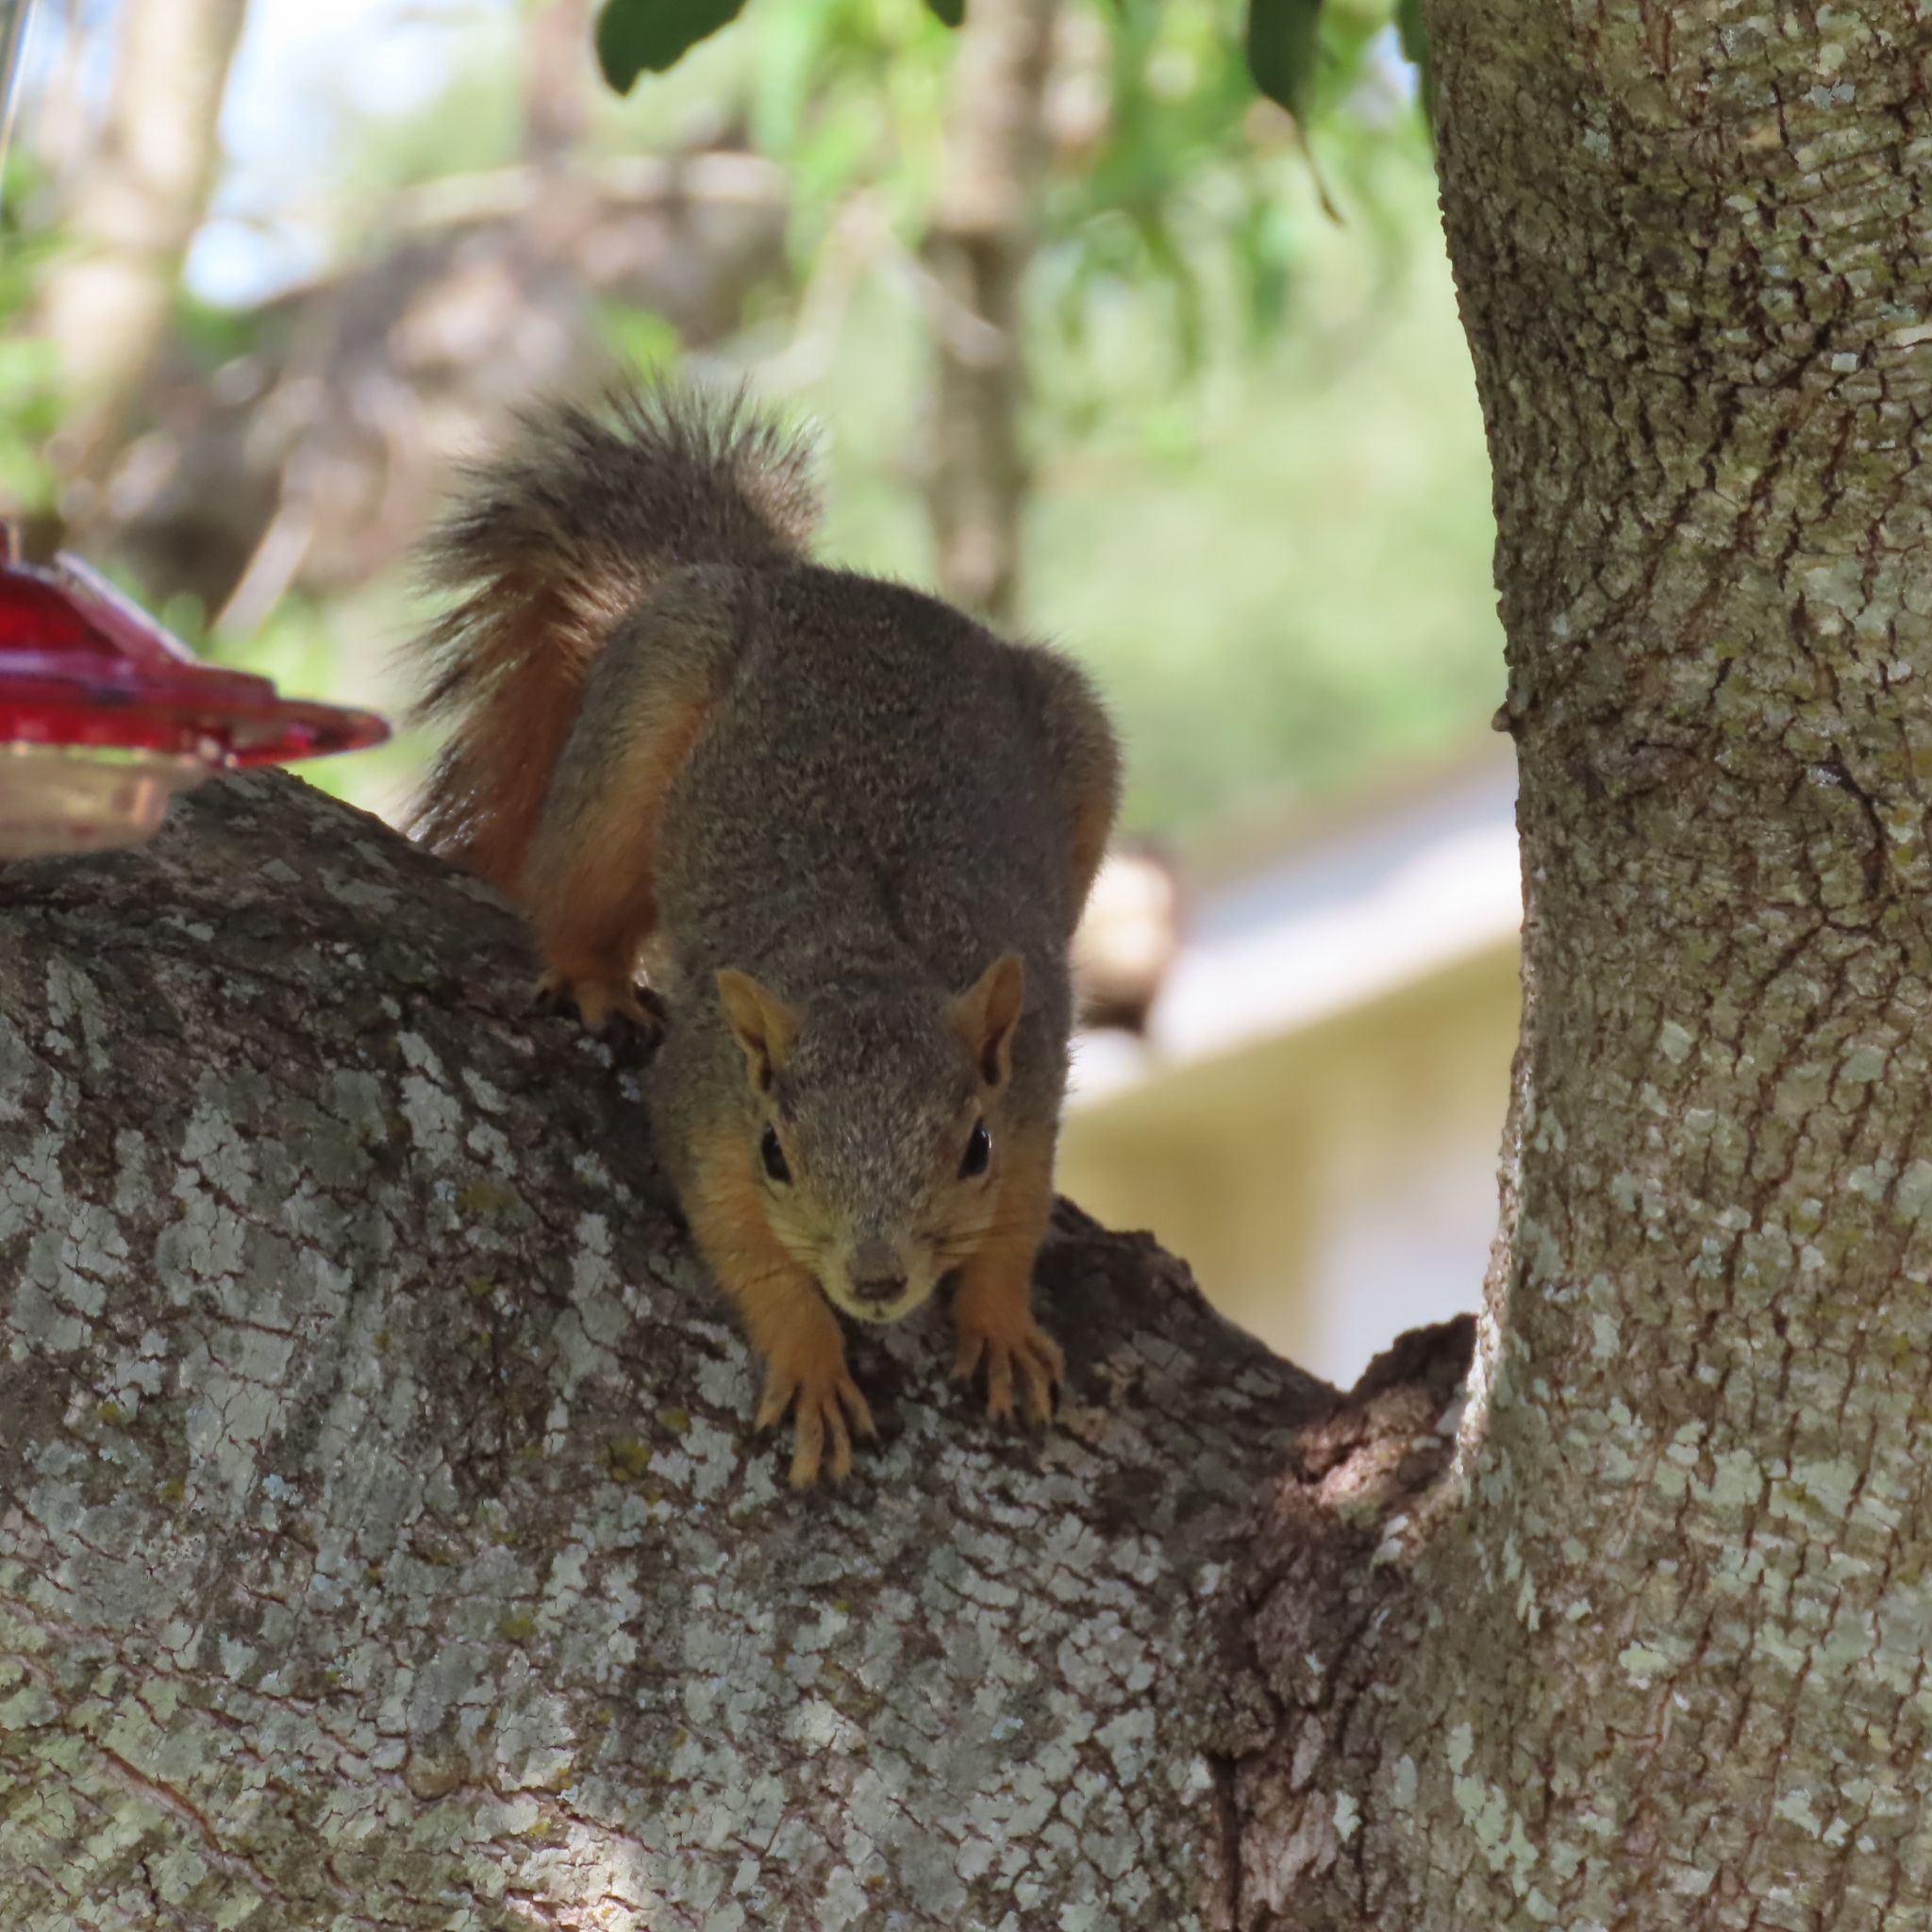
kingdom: Animalia
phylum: Chordata
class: Mammalia
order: Rodentia
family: Sciuridae
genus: Sciurus
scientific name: Sciurus niger
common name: Fox squirrel
